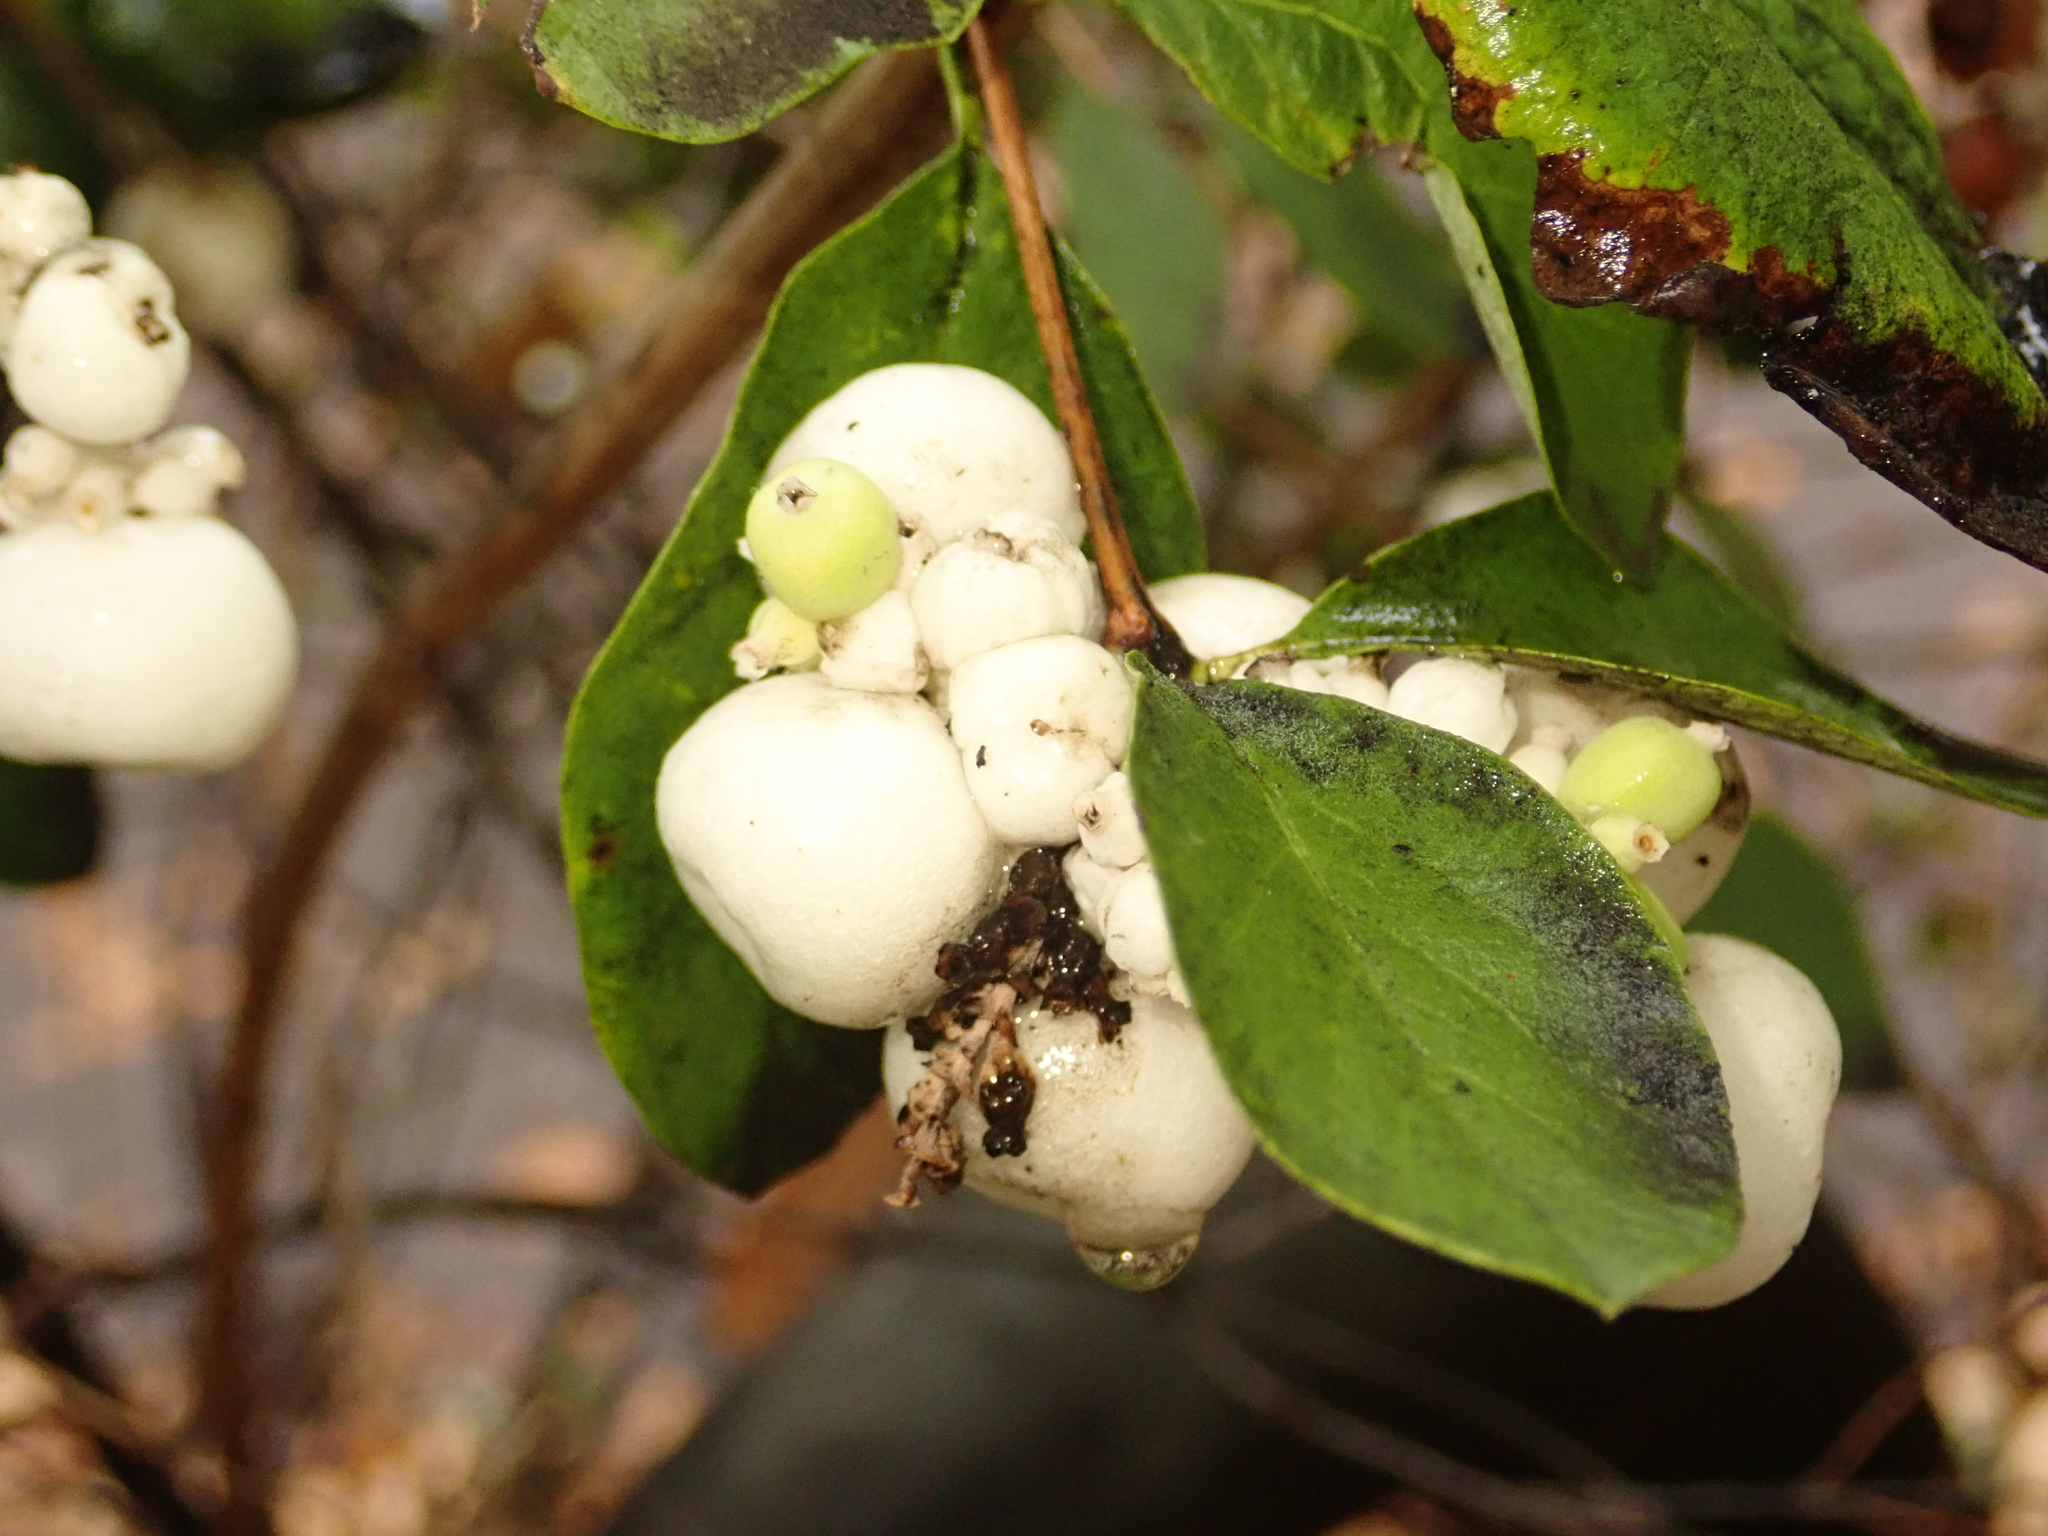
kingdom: Plantae
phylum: Tracheophyta
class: Magnoliopsida
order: Dipsacales
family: Caprifoliaceae
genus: Symphoricarpos
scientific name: Symphoricarpos albus
